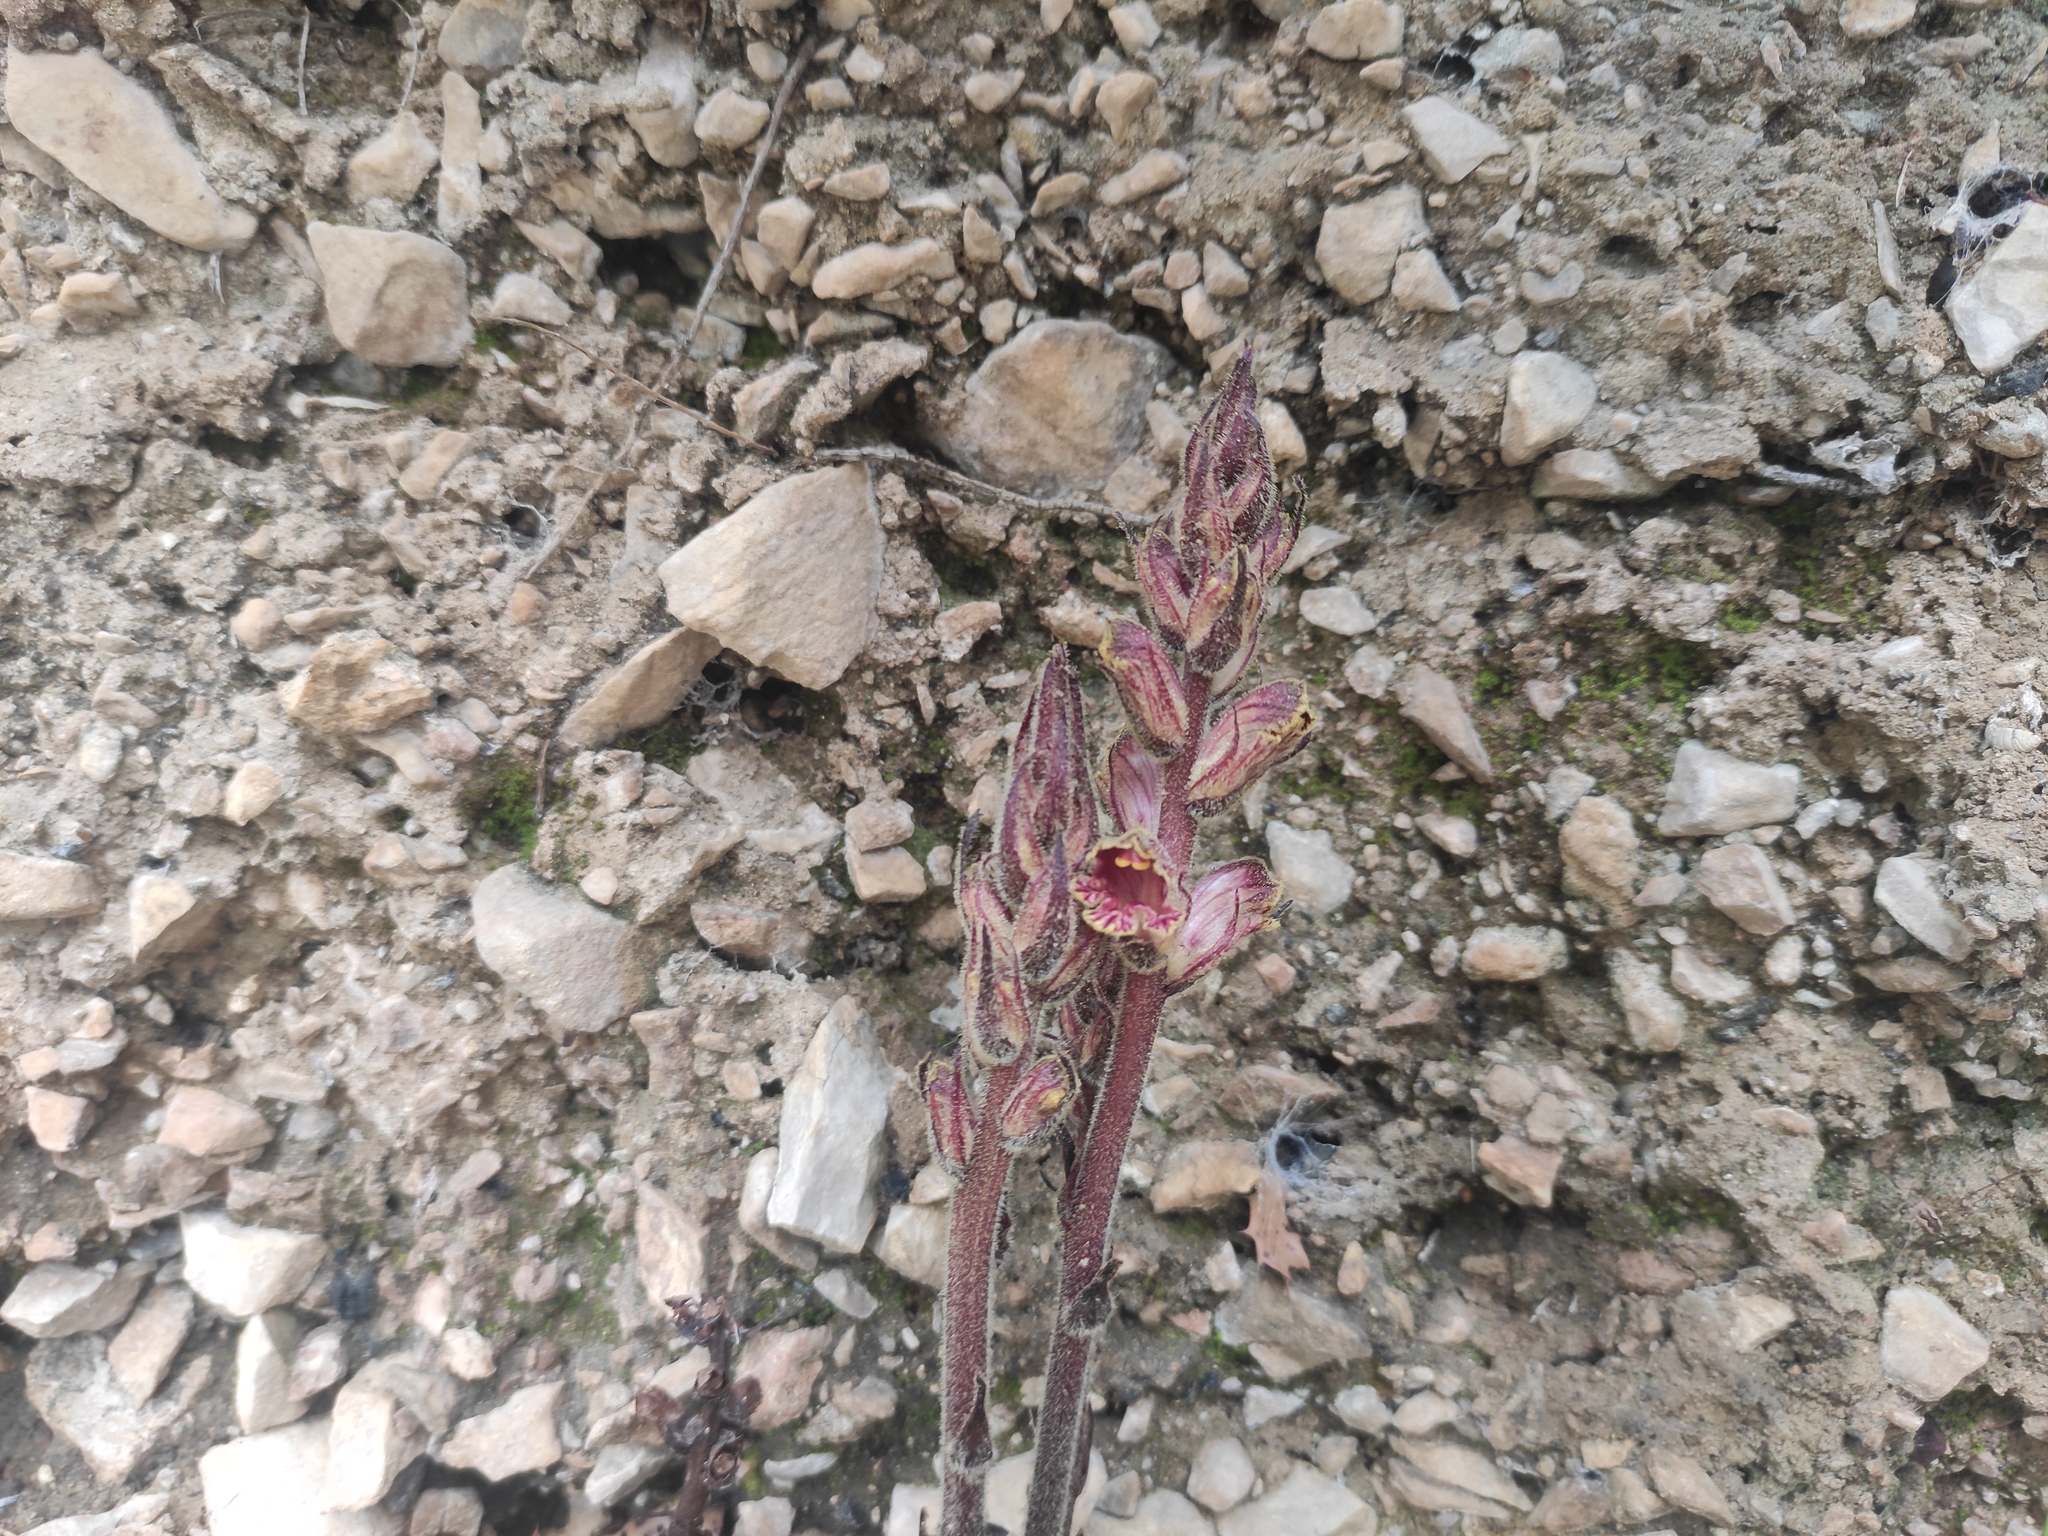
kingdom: Plantae
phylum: Tracheophyta
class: Magnoliopsida
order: Lamiales
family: Orobanchaceae
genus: Orobanche
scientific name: Orobanche gracilis
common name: Slender broomrape
